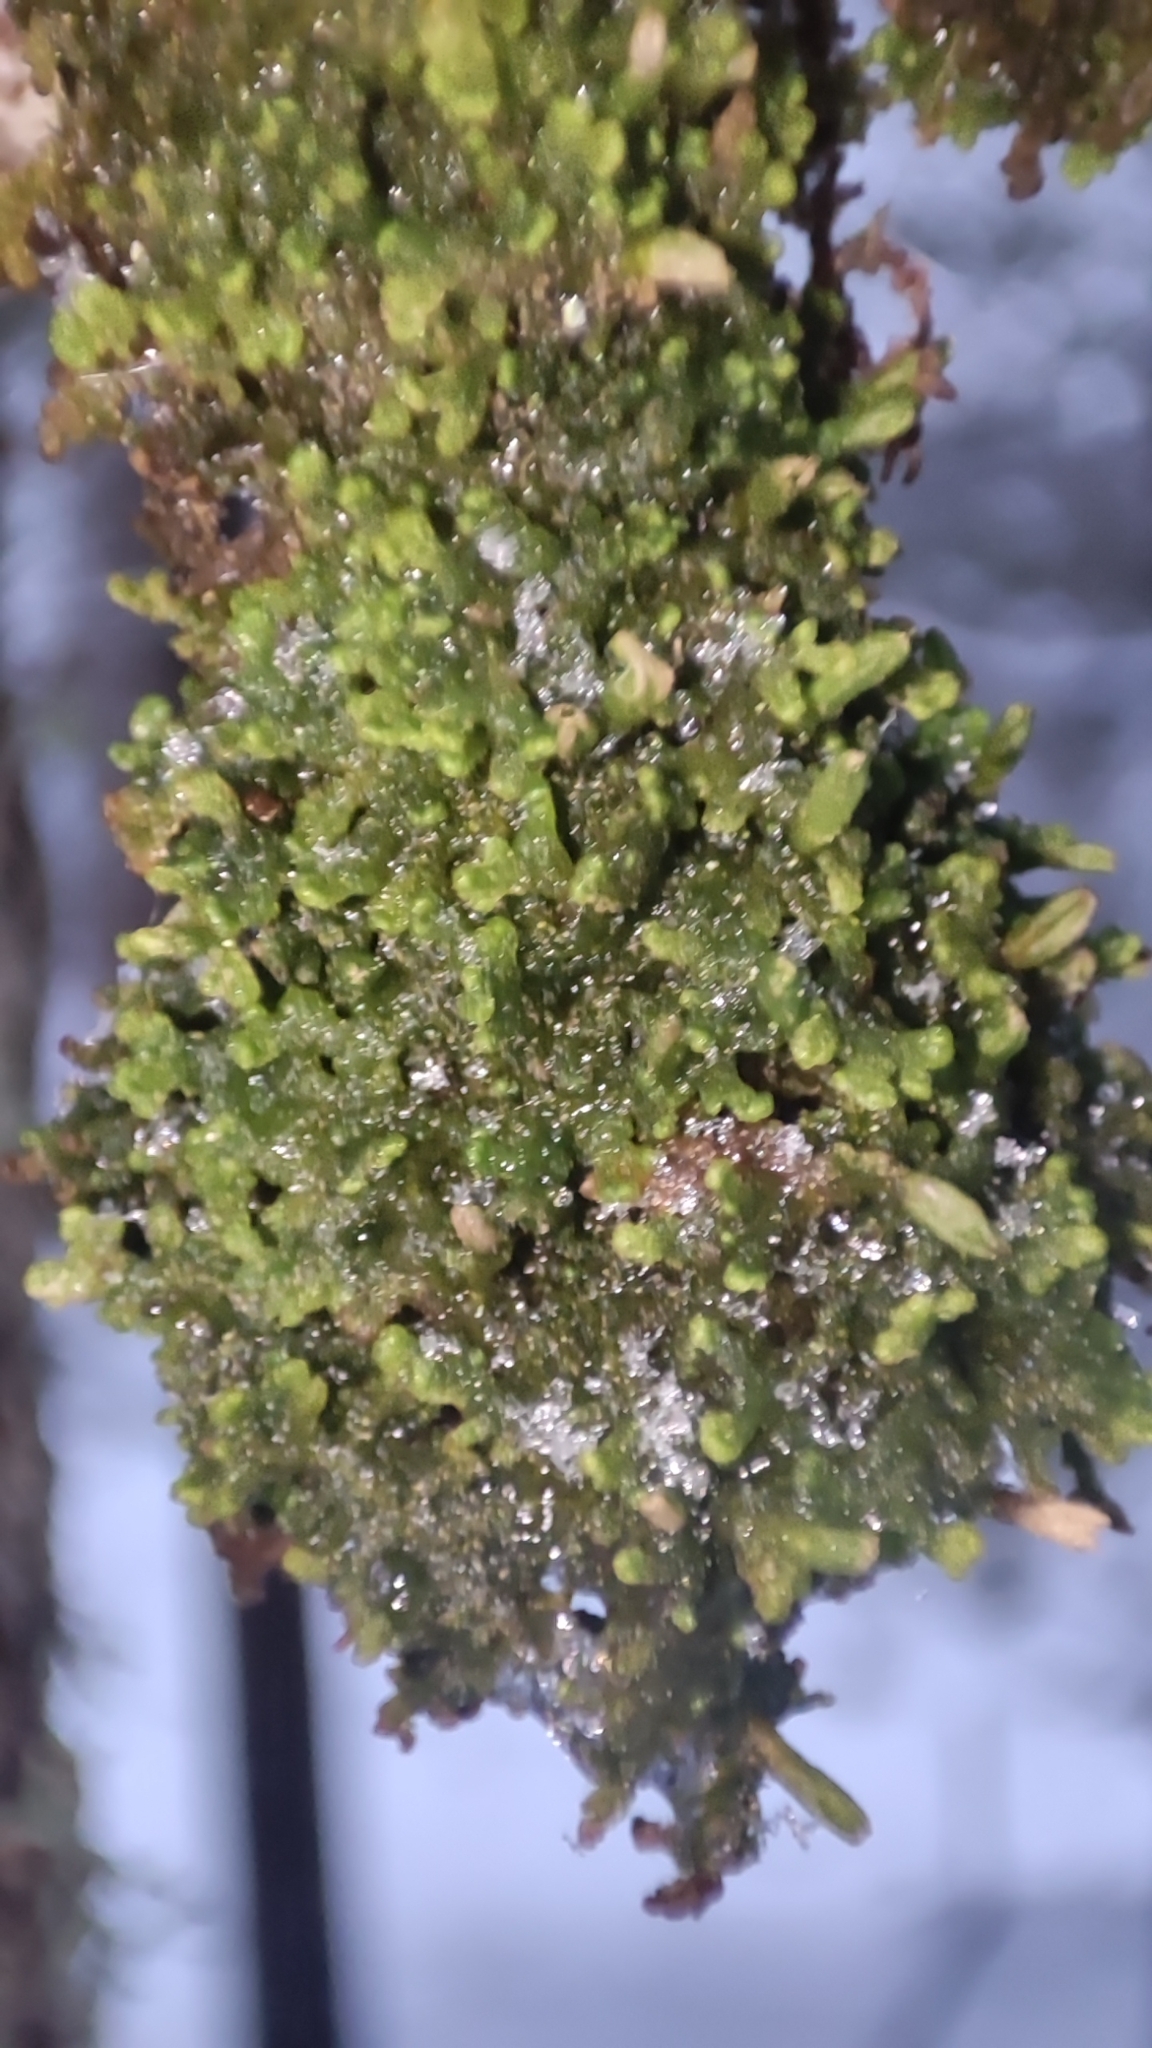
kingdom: Plantae
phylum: Marchantiophyta
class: Jungermanniopsida
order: Ptilidiales
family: Ptilidiaceae
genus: Ptilidium
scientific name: Ptilidium pulcherrimum
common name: Tree fringewort
